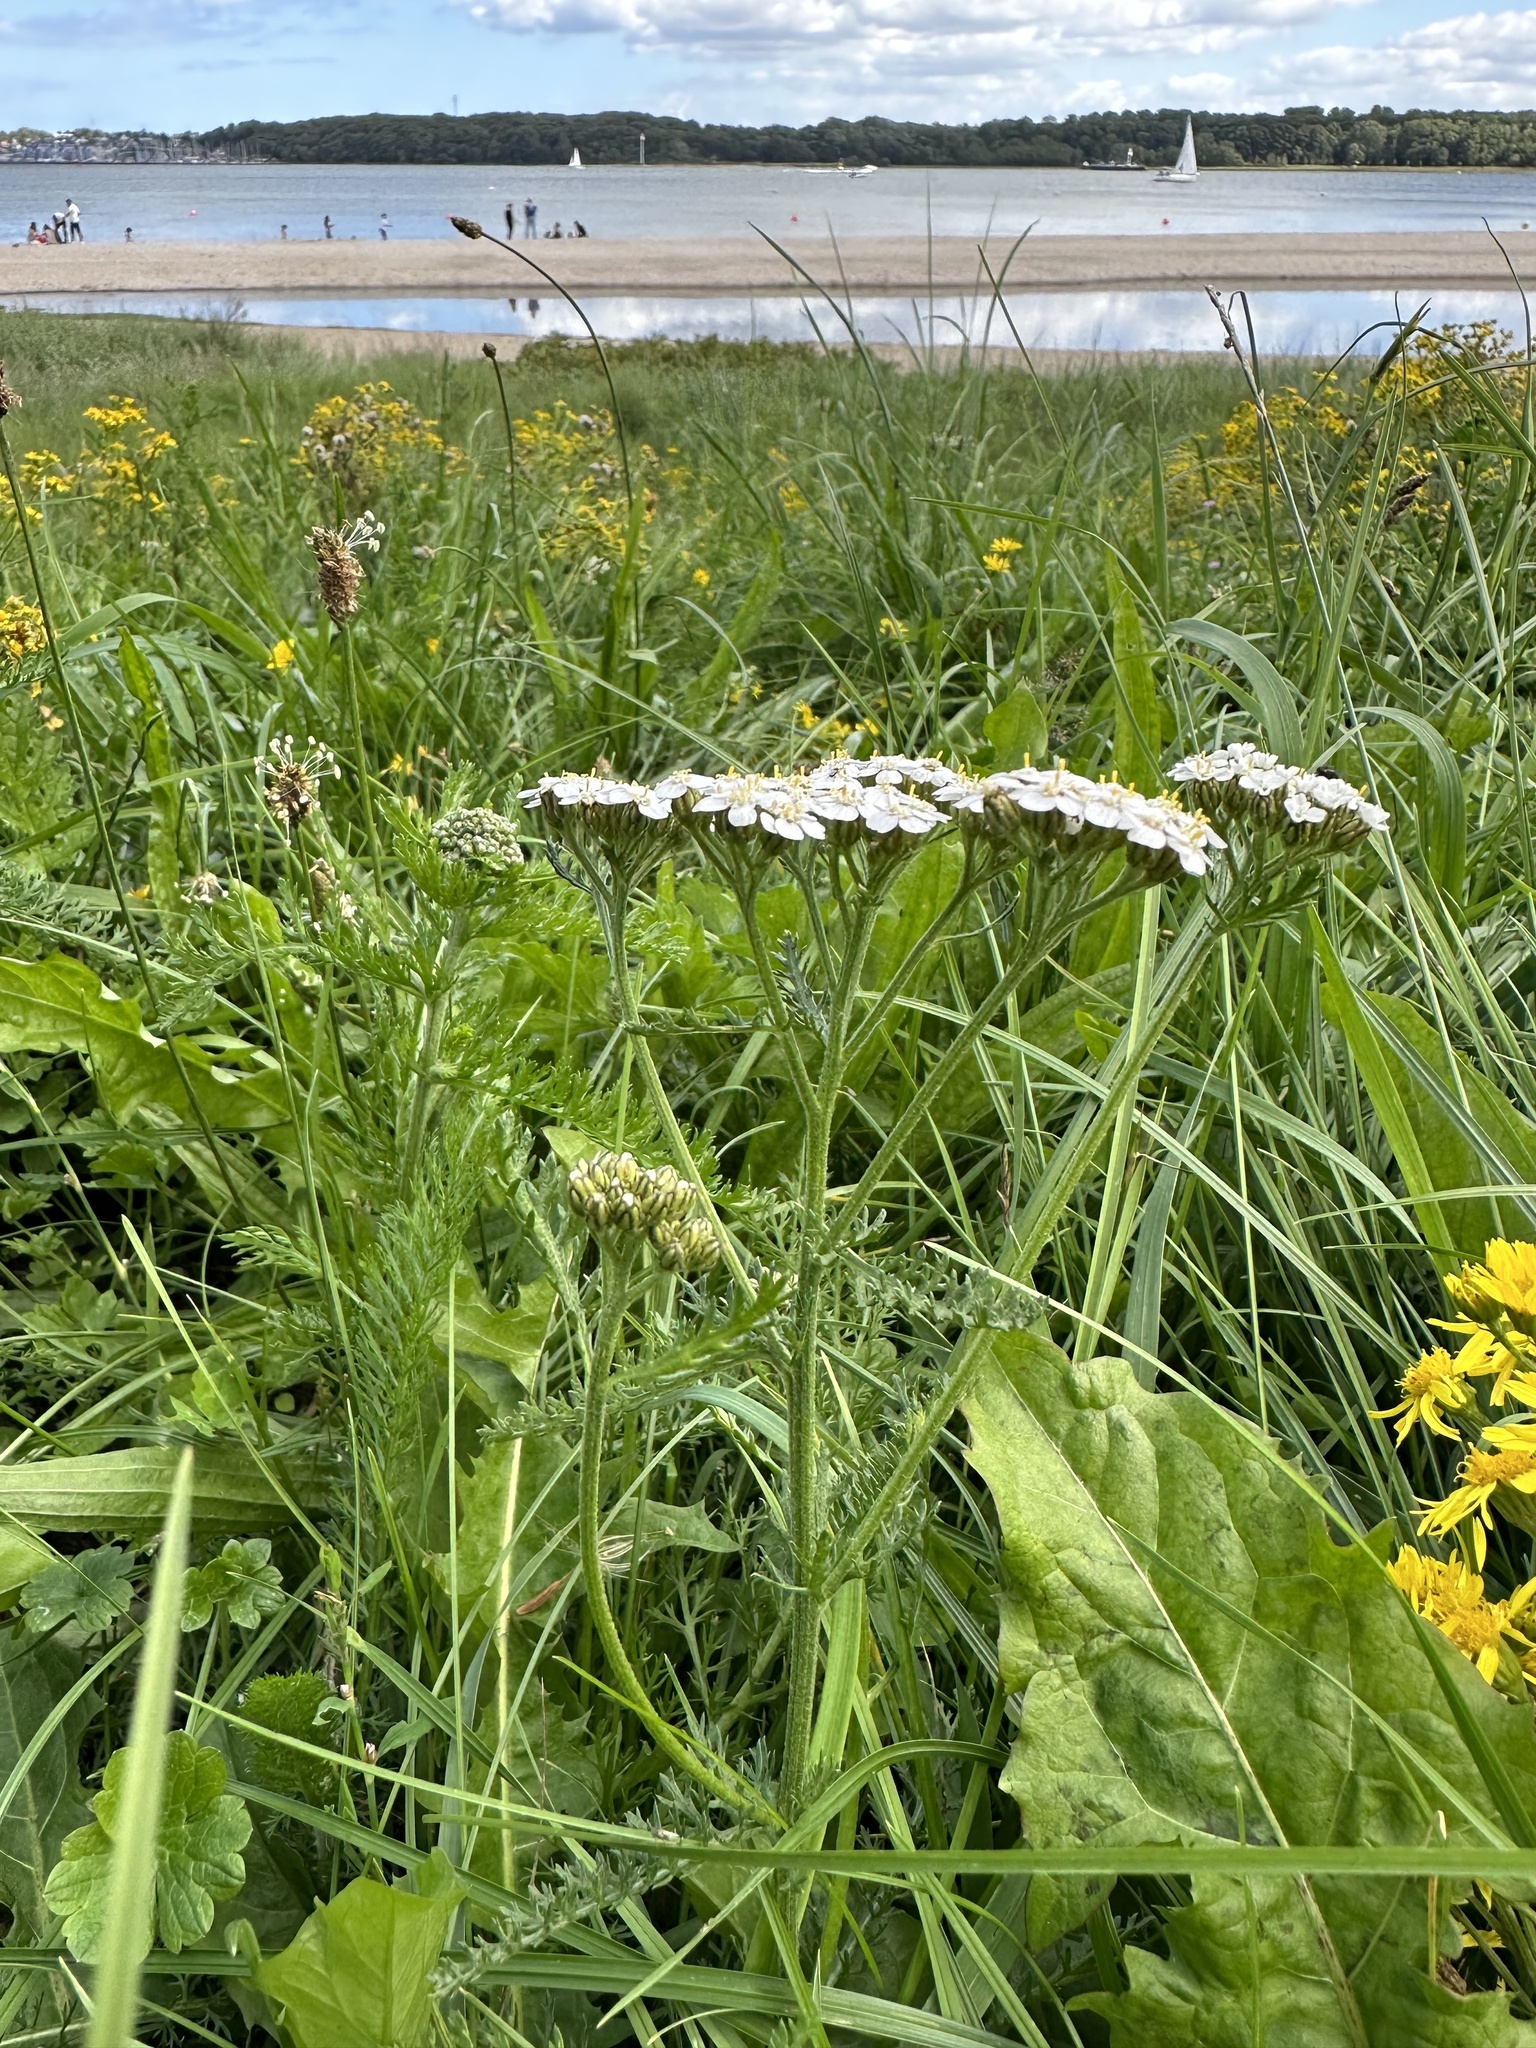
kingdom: Plantae
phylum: Tracheophyta
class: Magnoliopsida
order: Asterales
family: Asteraceae
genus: Achillea
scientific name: Achillea millefolium
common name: Yarrow
